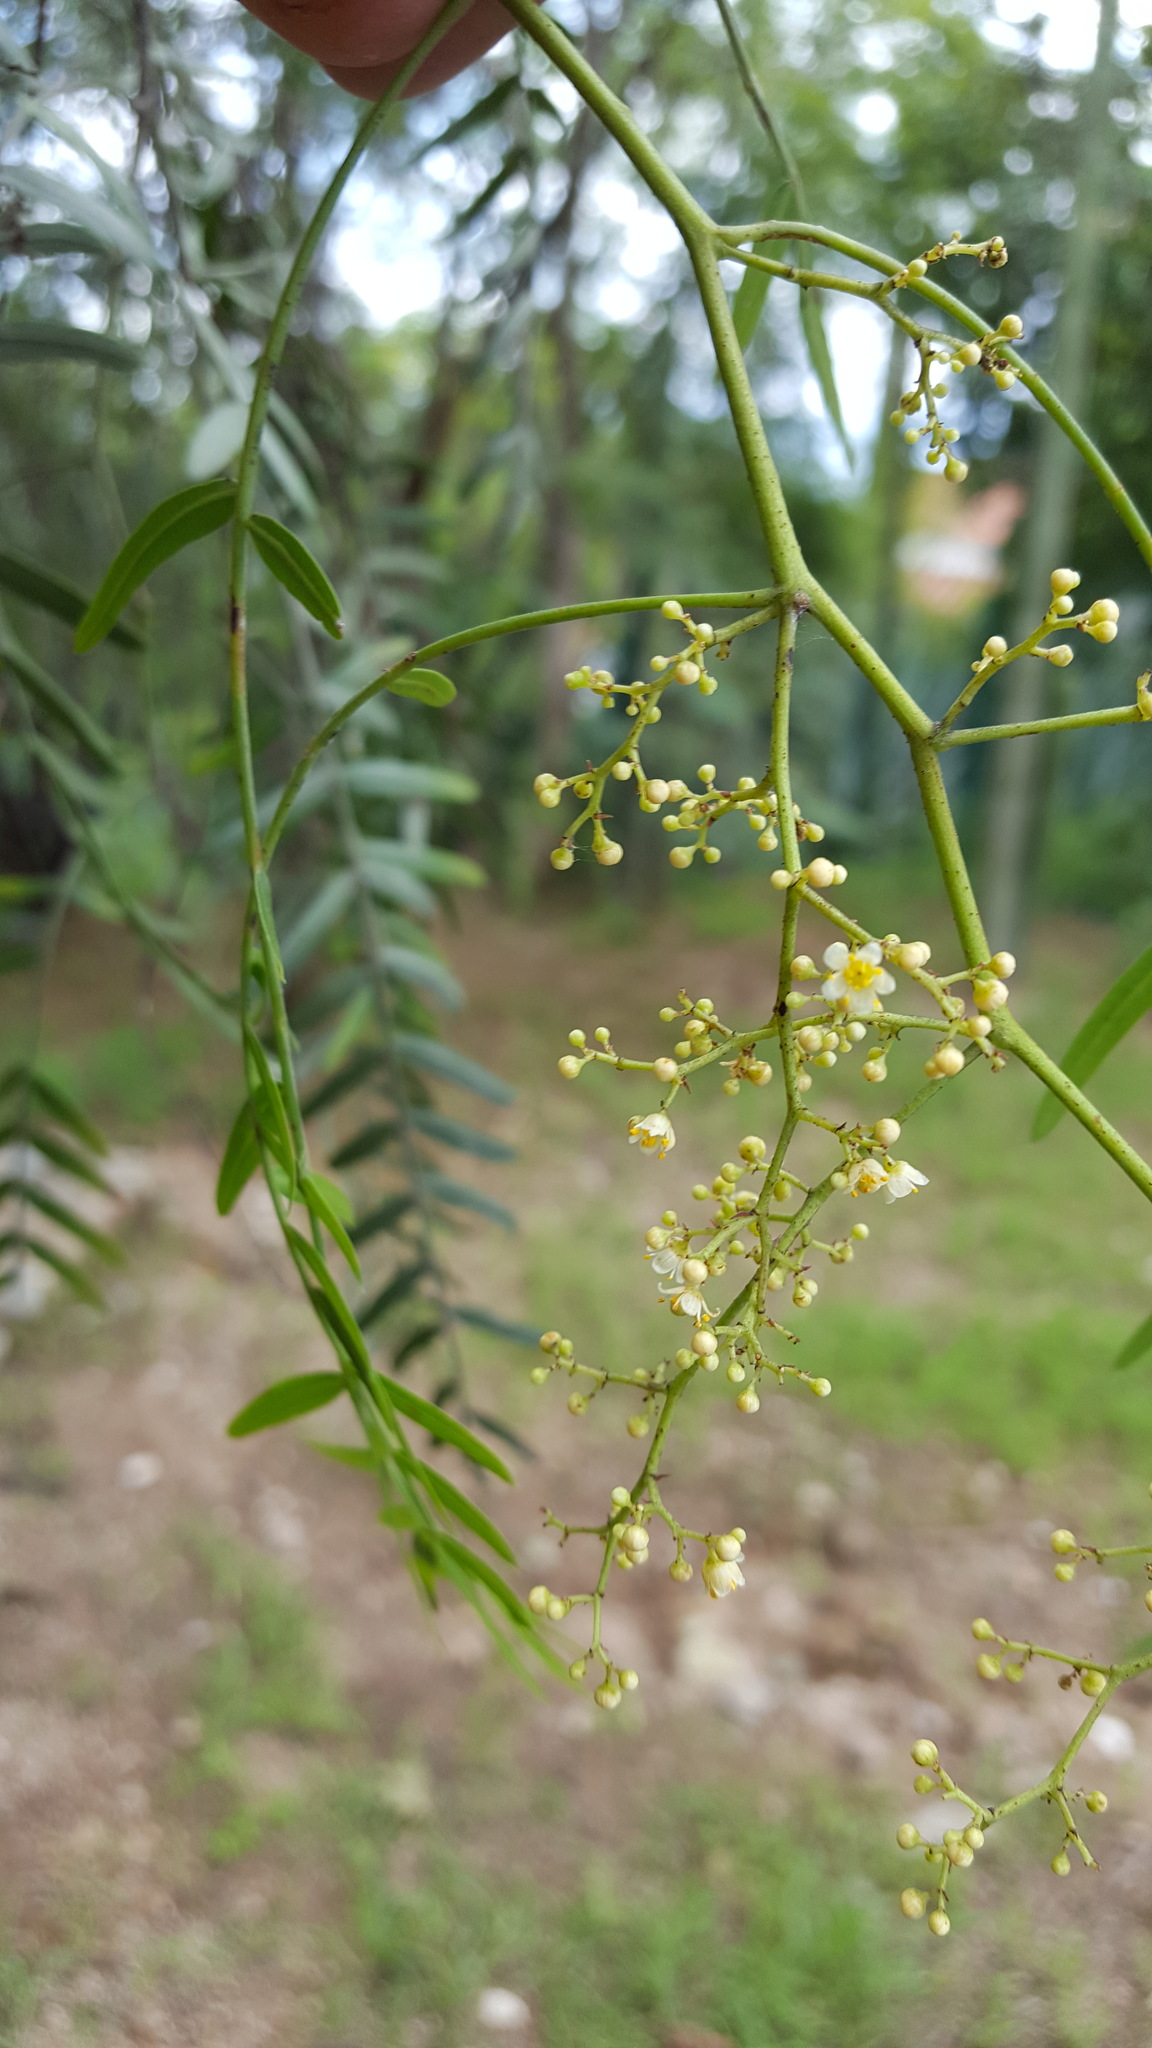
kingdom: Plantae
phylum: Tracheophyta
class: Magnoliopsida
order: Sapindales
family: Anacardiaceae
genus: Schinus
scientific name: Schinus molle
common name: Peruvian peppertree
